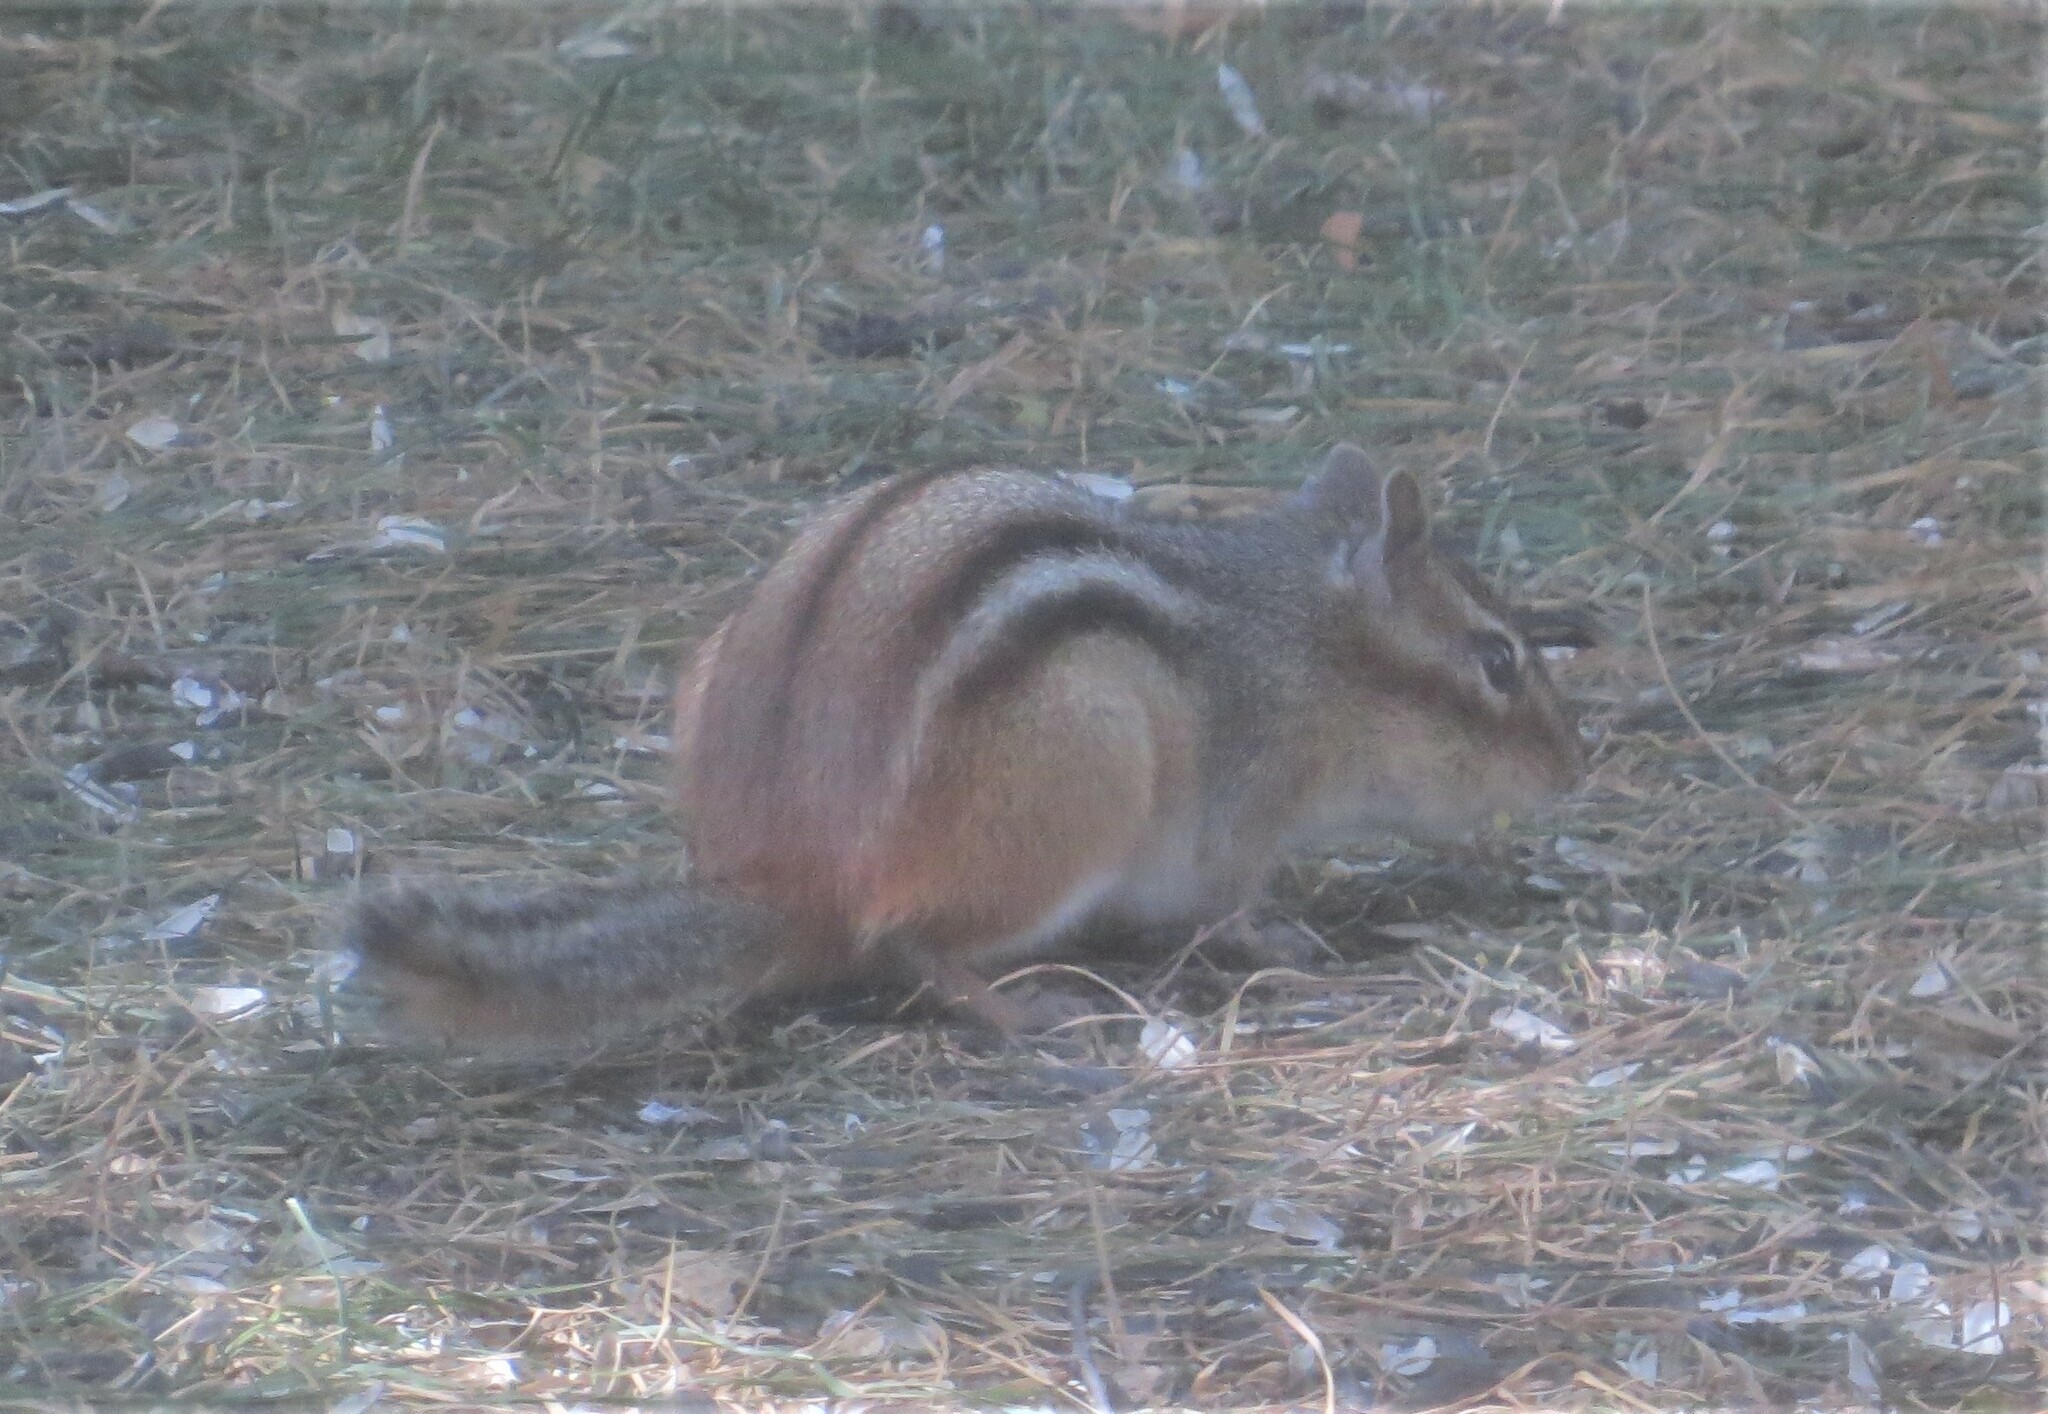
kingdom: Animalia
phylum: Chordata
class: Mammalia
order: Rodentia
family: Sciuridae
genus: Tamias
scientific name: Tamias striatus
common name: Eastern chipmunk
